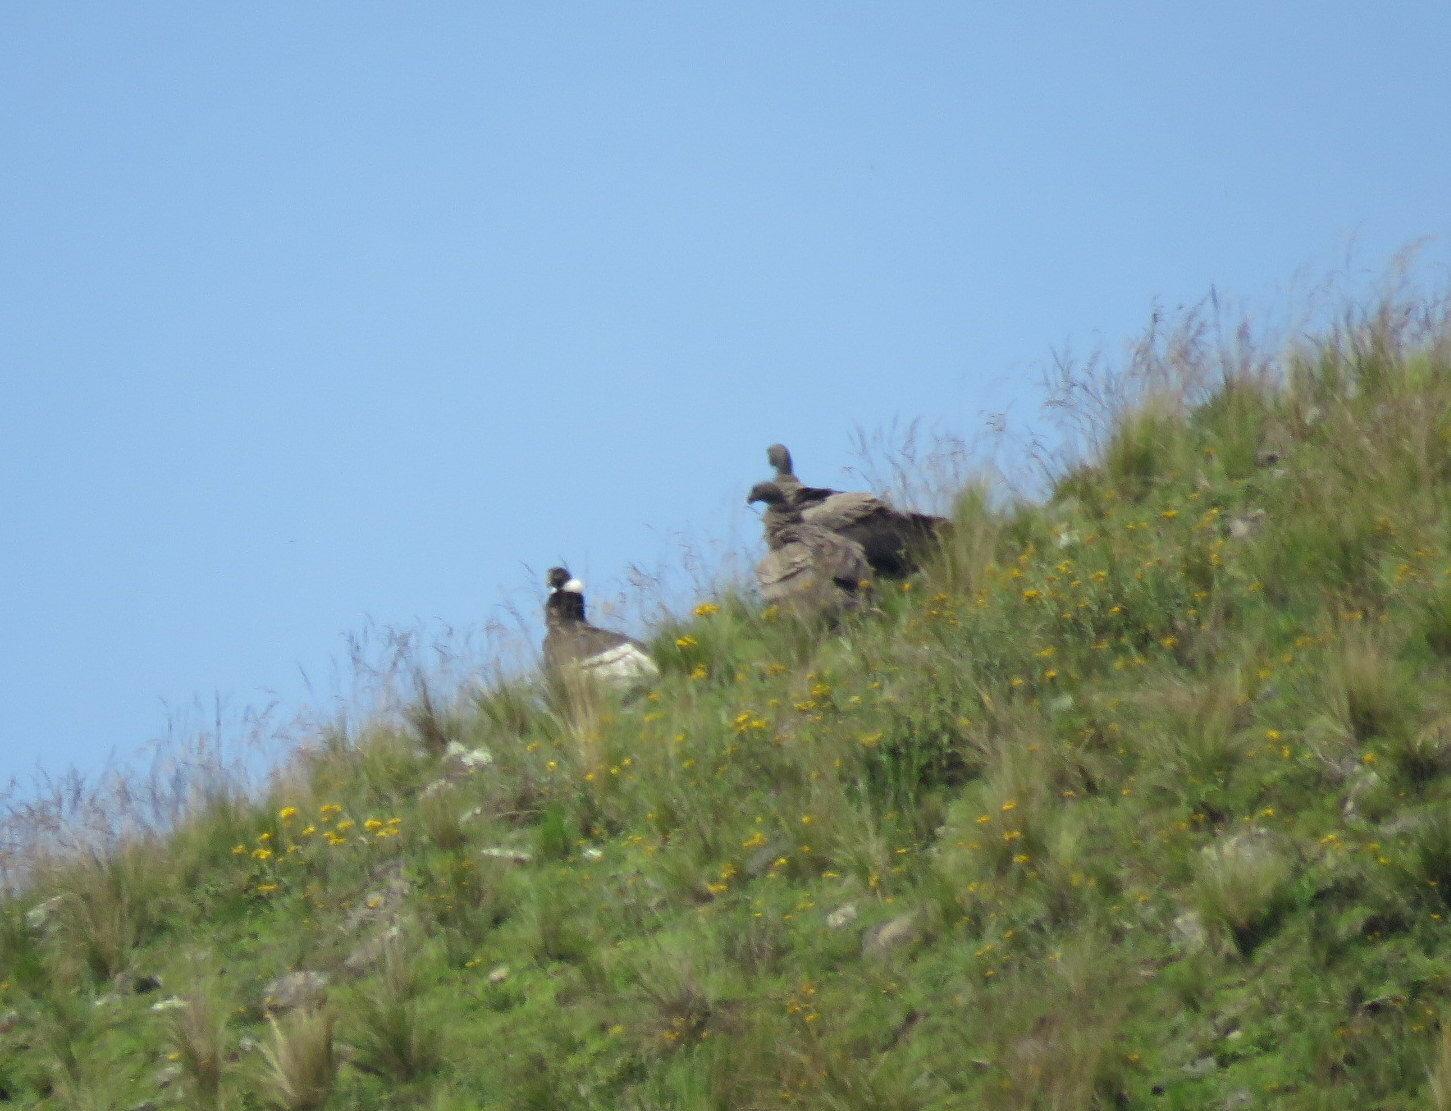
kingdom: Animalia
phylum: Chordata
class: Aves
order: Accipitriformes
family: Cathartidae
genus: Vultur
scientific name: Vultur gryphus
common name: Andean condor
